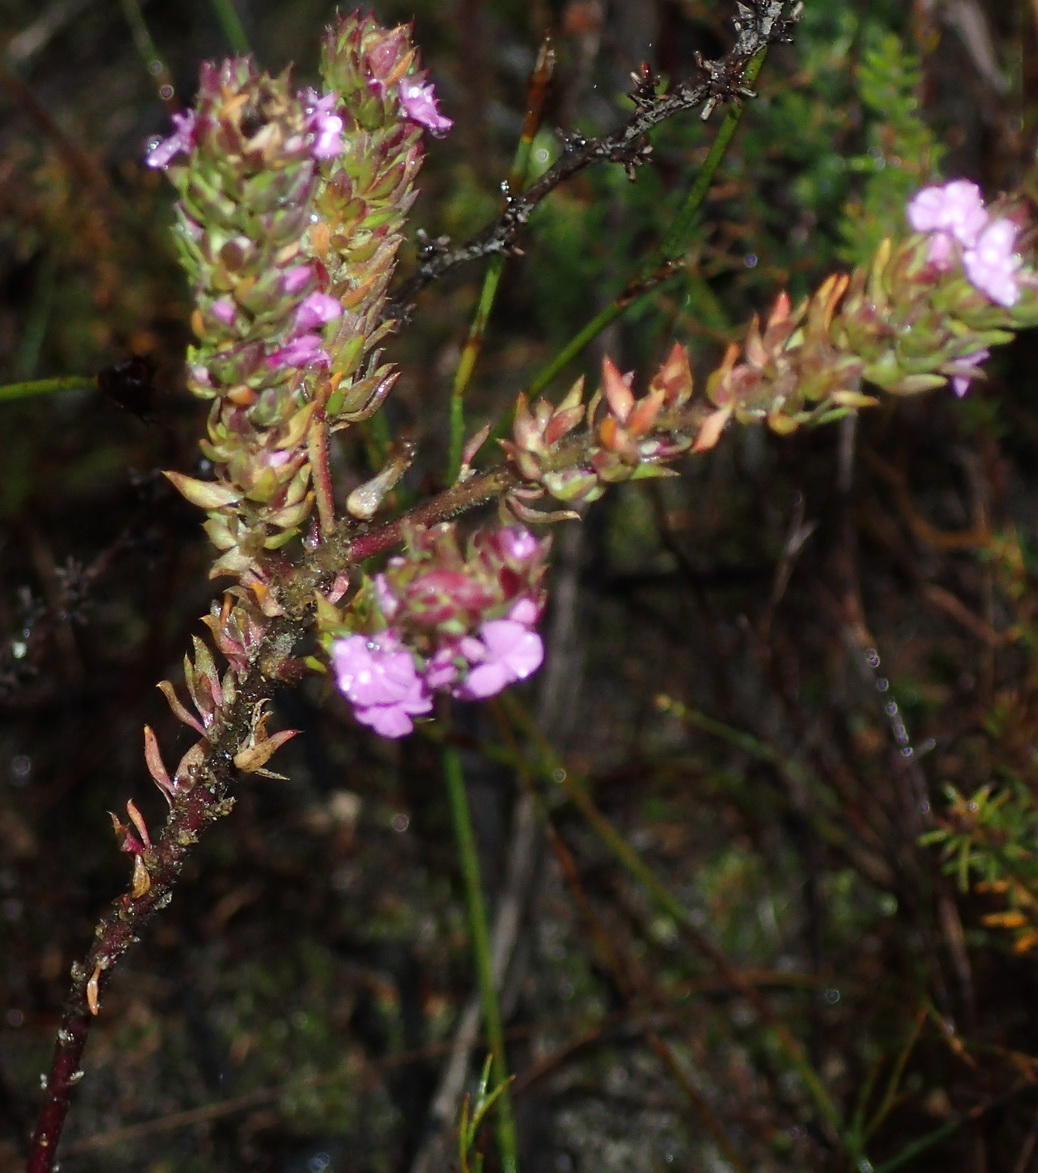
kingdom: Plantae
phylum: Tracheophyta
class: Magnoliopsida
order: Fabales
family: Polygalaceae
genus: Muraltia
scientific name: Muraltia squarrosa
